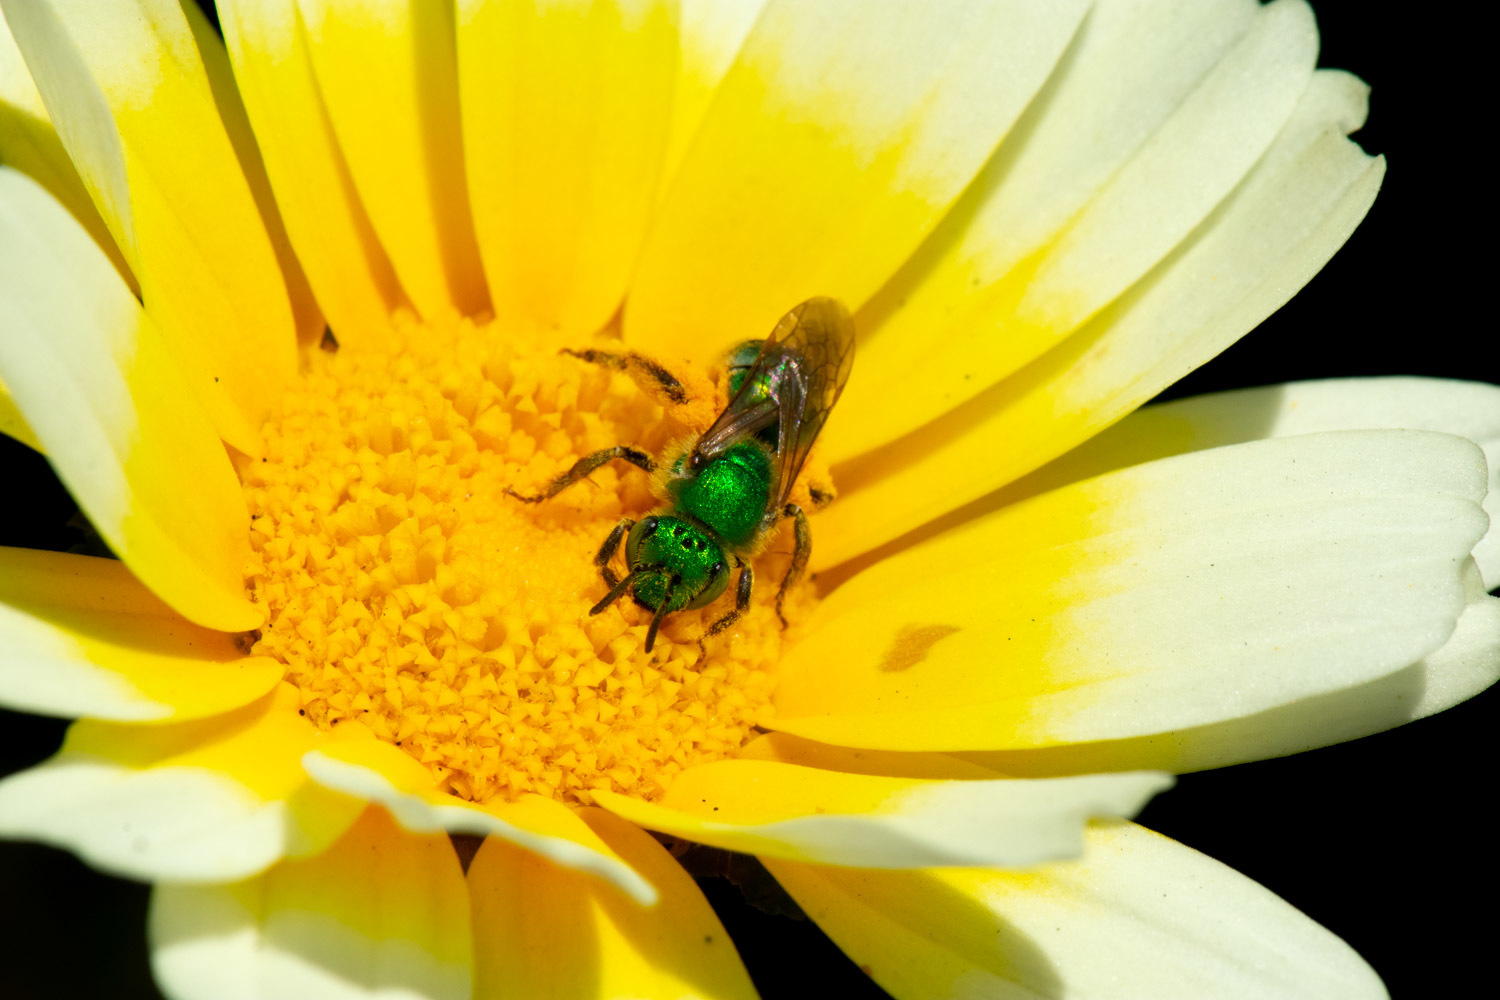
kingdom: Animalia
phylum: Arthropoda
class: Insecta
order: Hymenoptera
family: Halictidae
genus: Agapostemon
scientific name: Agapostemon texanus
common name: Texas striped sweat bee
